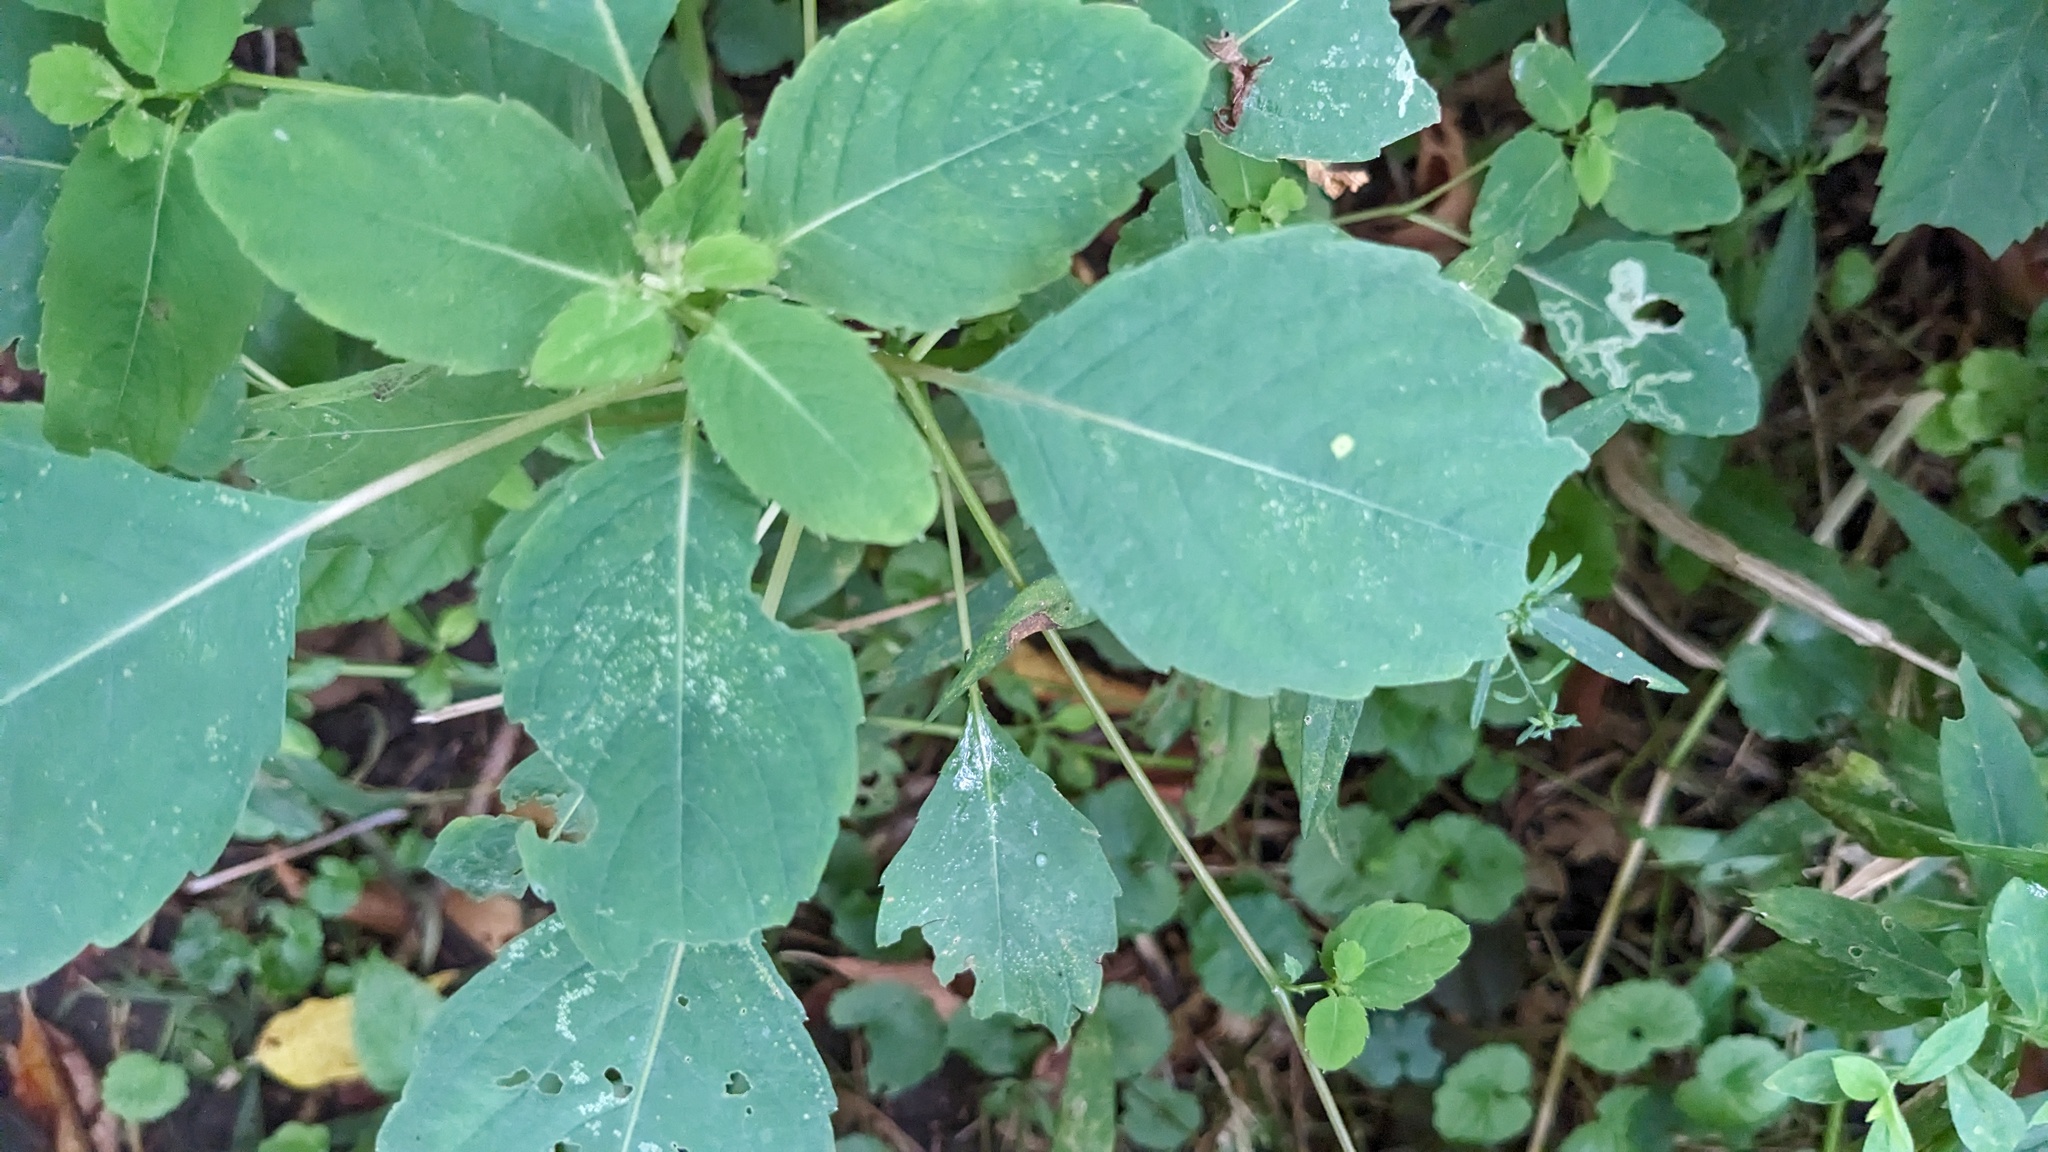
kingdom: Plantae
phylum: Tracheophyta
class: Magnoliopsida
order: Ericales
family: Balsaminaceae
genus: Impatiens
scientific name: Impatiens capensis
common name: Orange balsam
